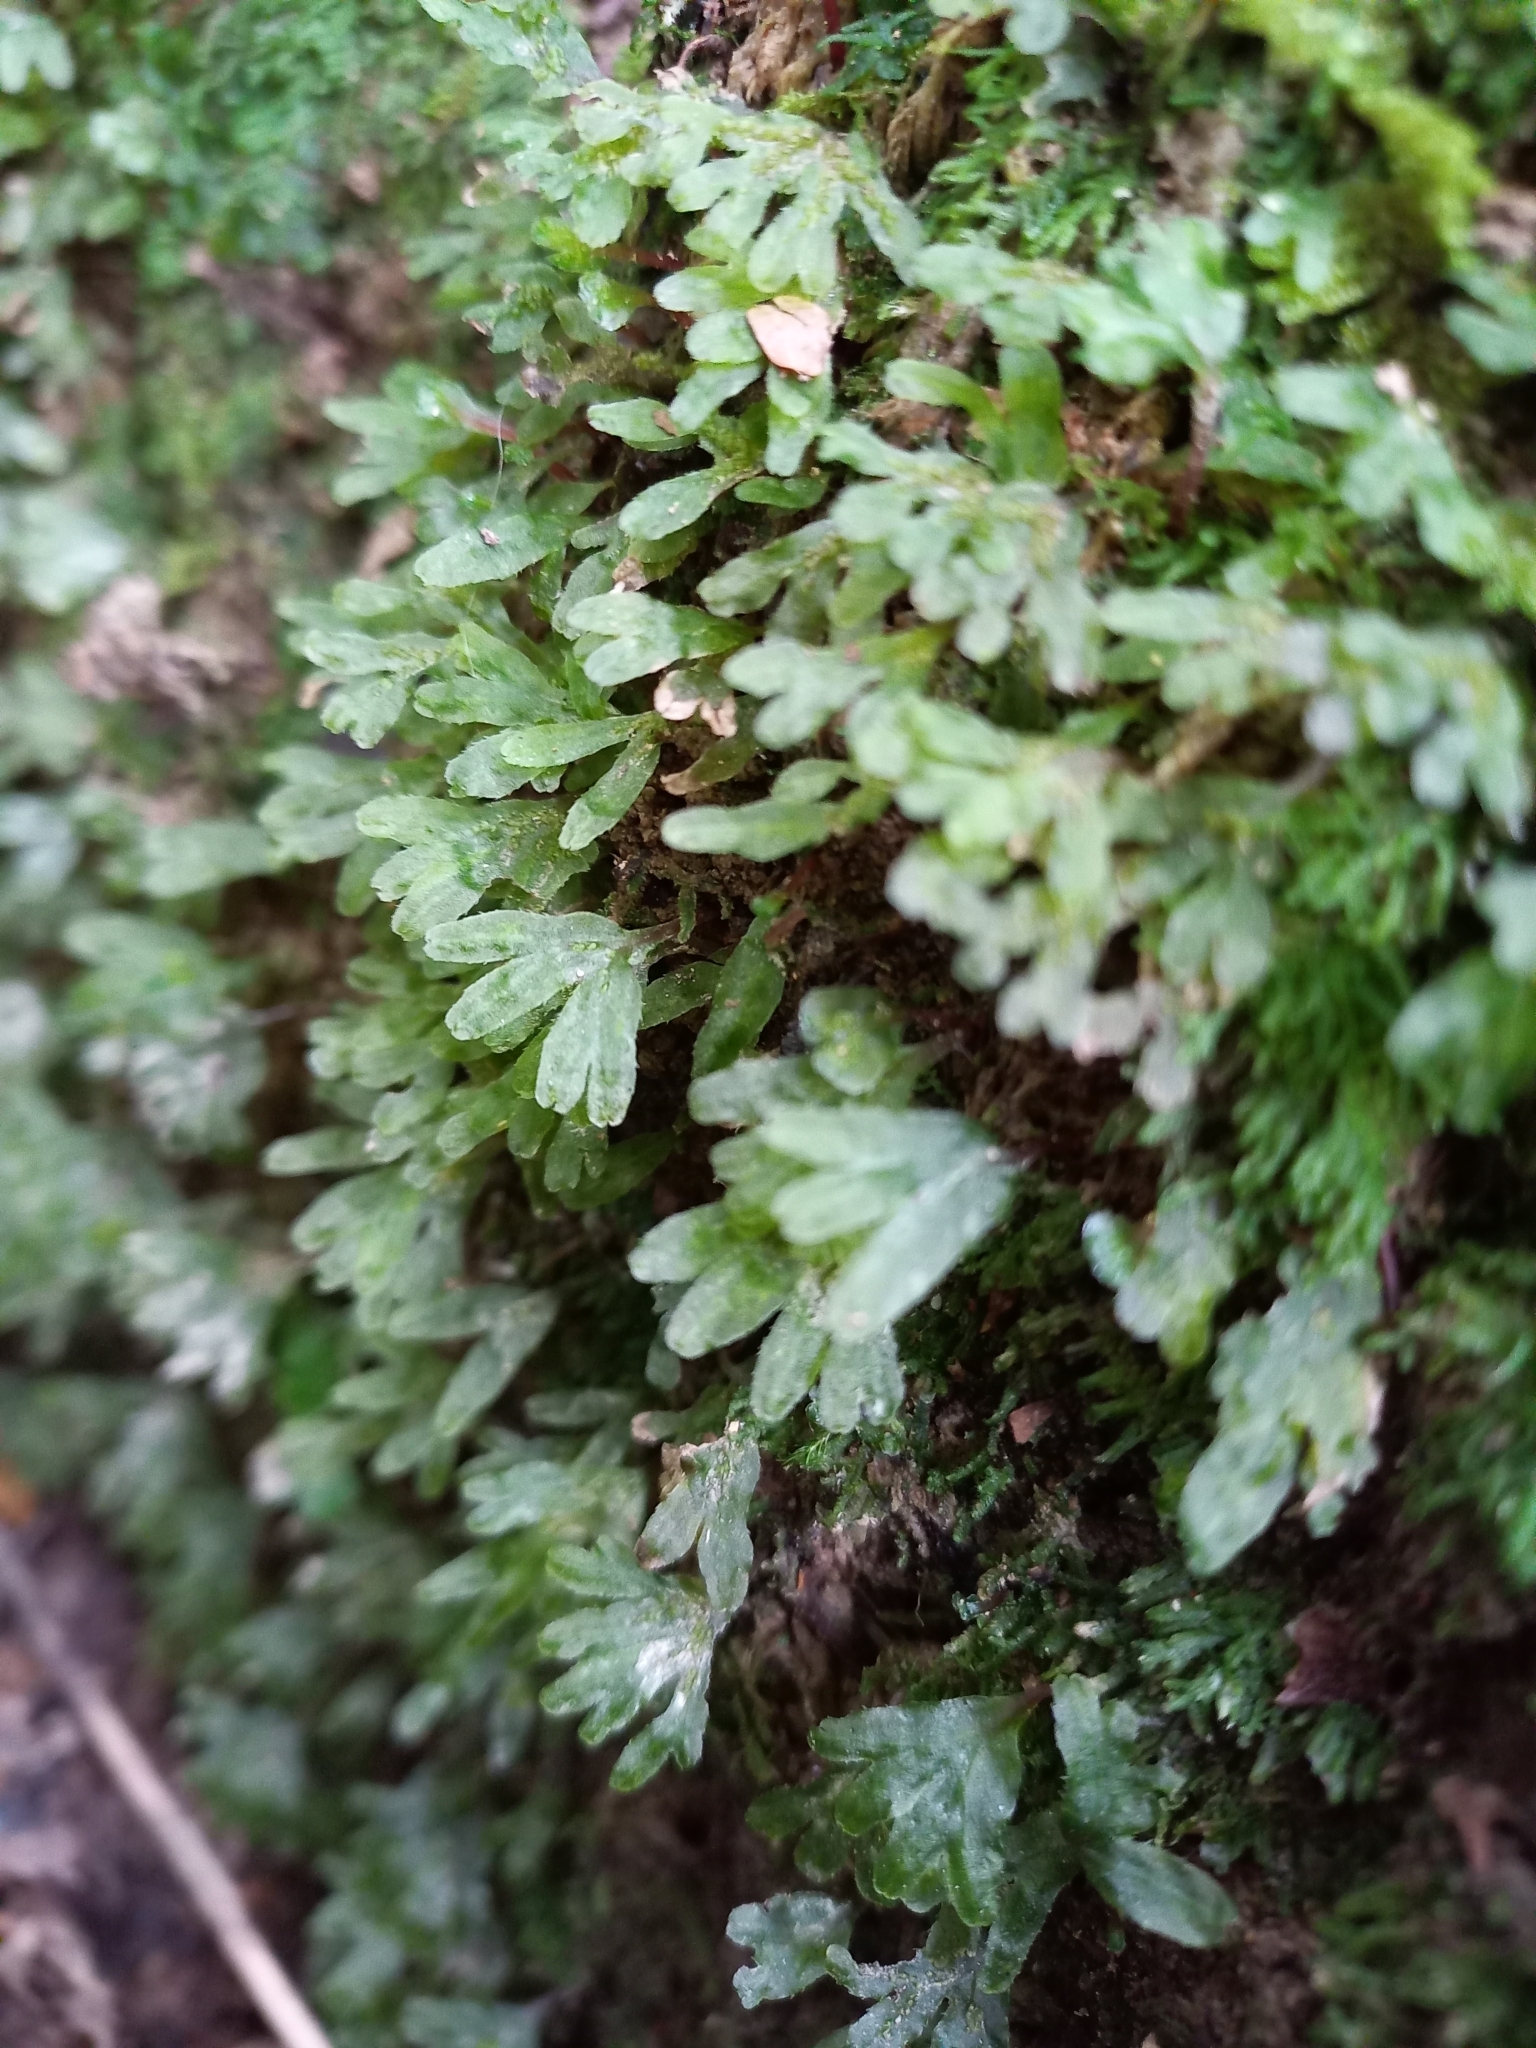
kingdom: Plantae
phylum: Marchantiophyta
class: Jungermanniopsida
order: Pallaviciniales
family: Pallaviciniaceae
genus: Symphyogyna
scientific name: Symphyogyna hymenophyllum
